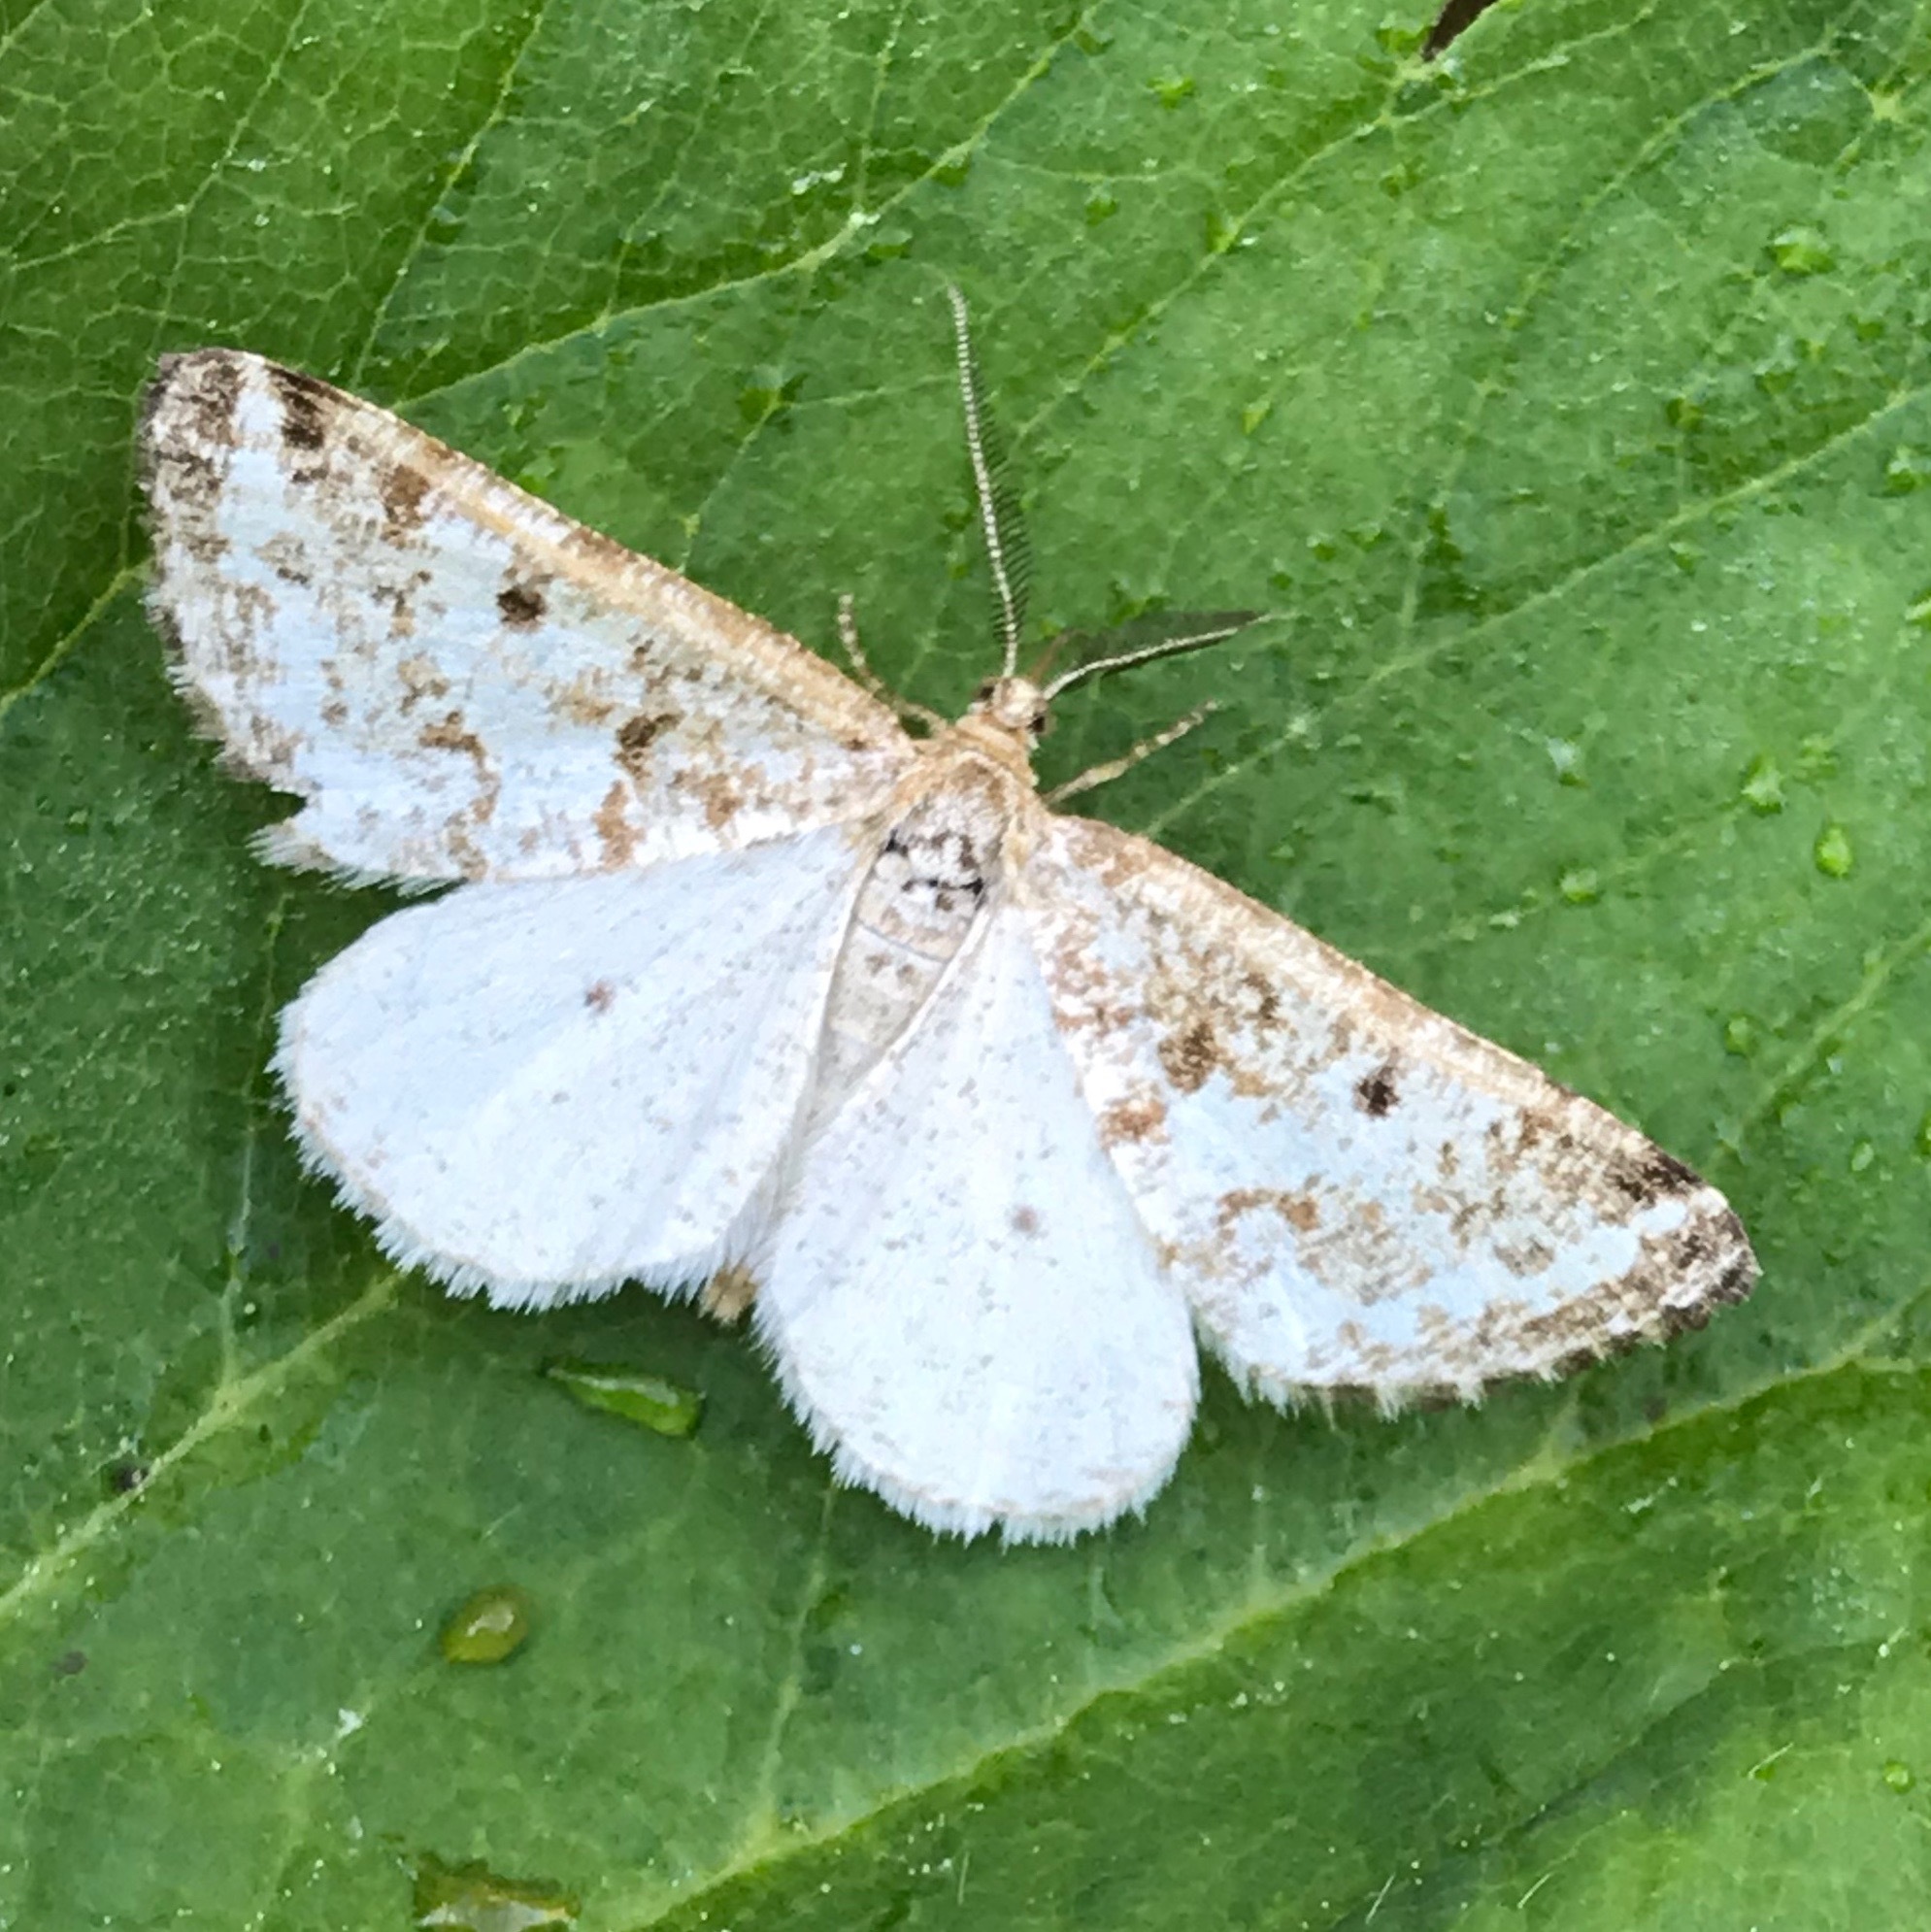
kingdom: Animalia
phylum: Arthropoda
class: Insecta
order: Lepidoptera
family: Geometridae
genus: Eufidonia
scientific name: Eufidonia notataria
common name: Powder moth
